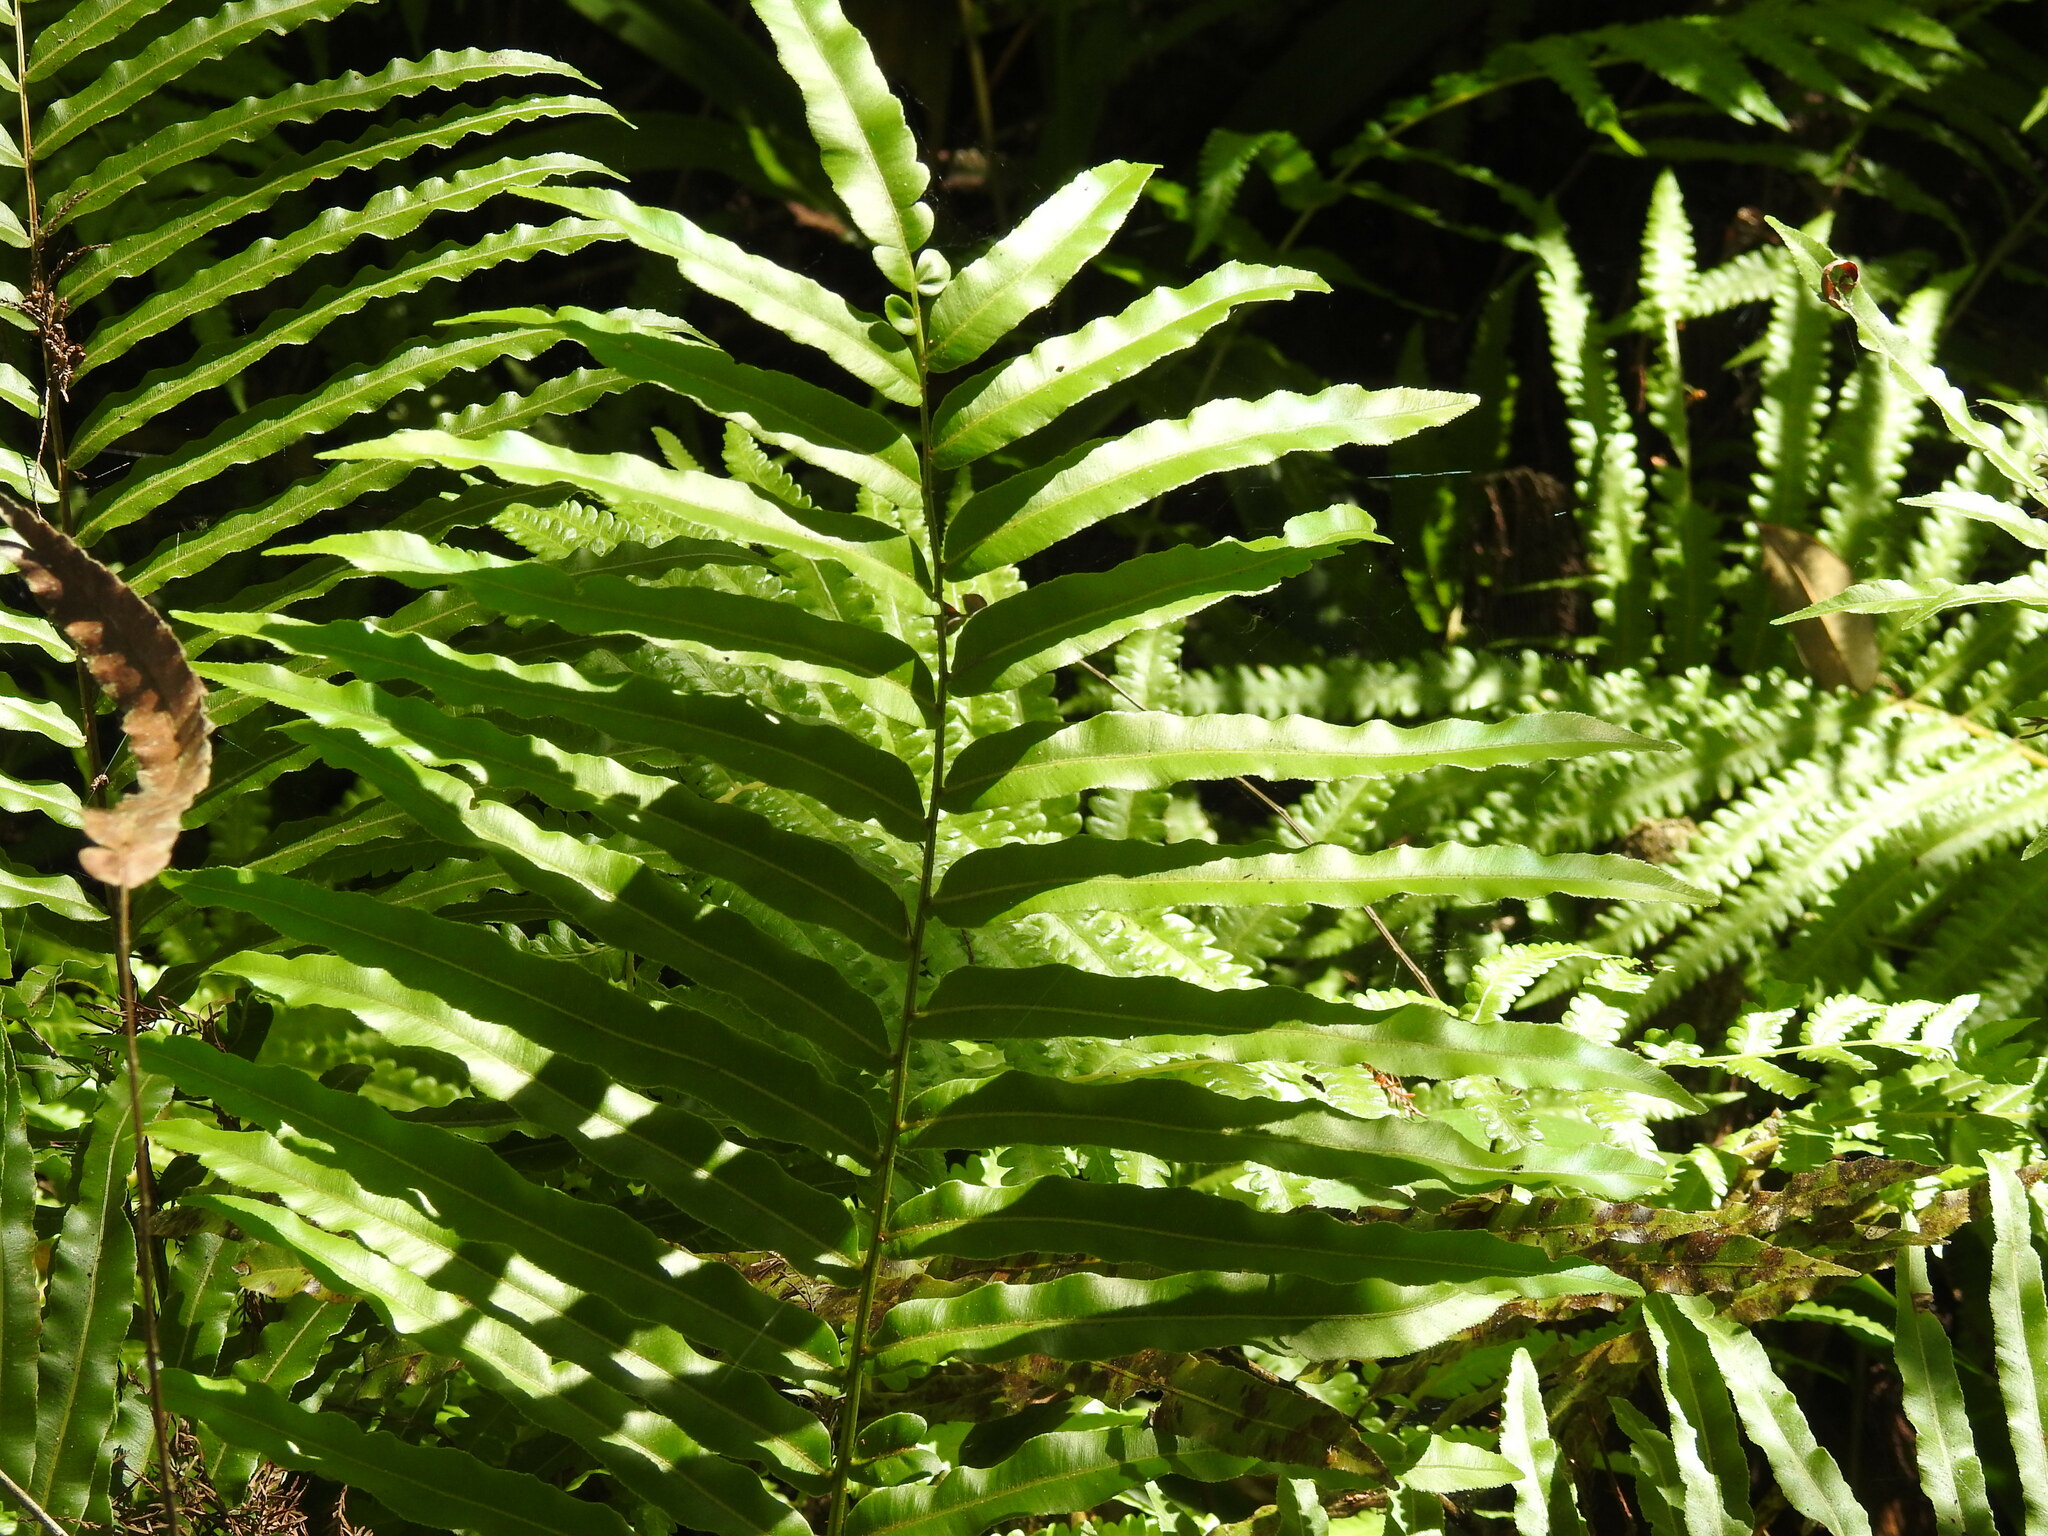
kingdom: Plantae
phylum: Tracheophyta
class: Polypodiopsida
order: Polypodiales
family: Blechnaceae
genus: Telmatoblechnum
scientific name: Telmatoblechnum serrulatum
